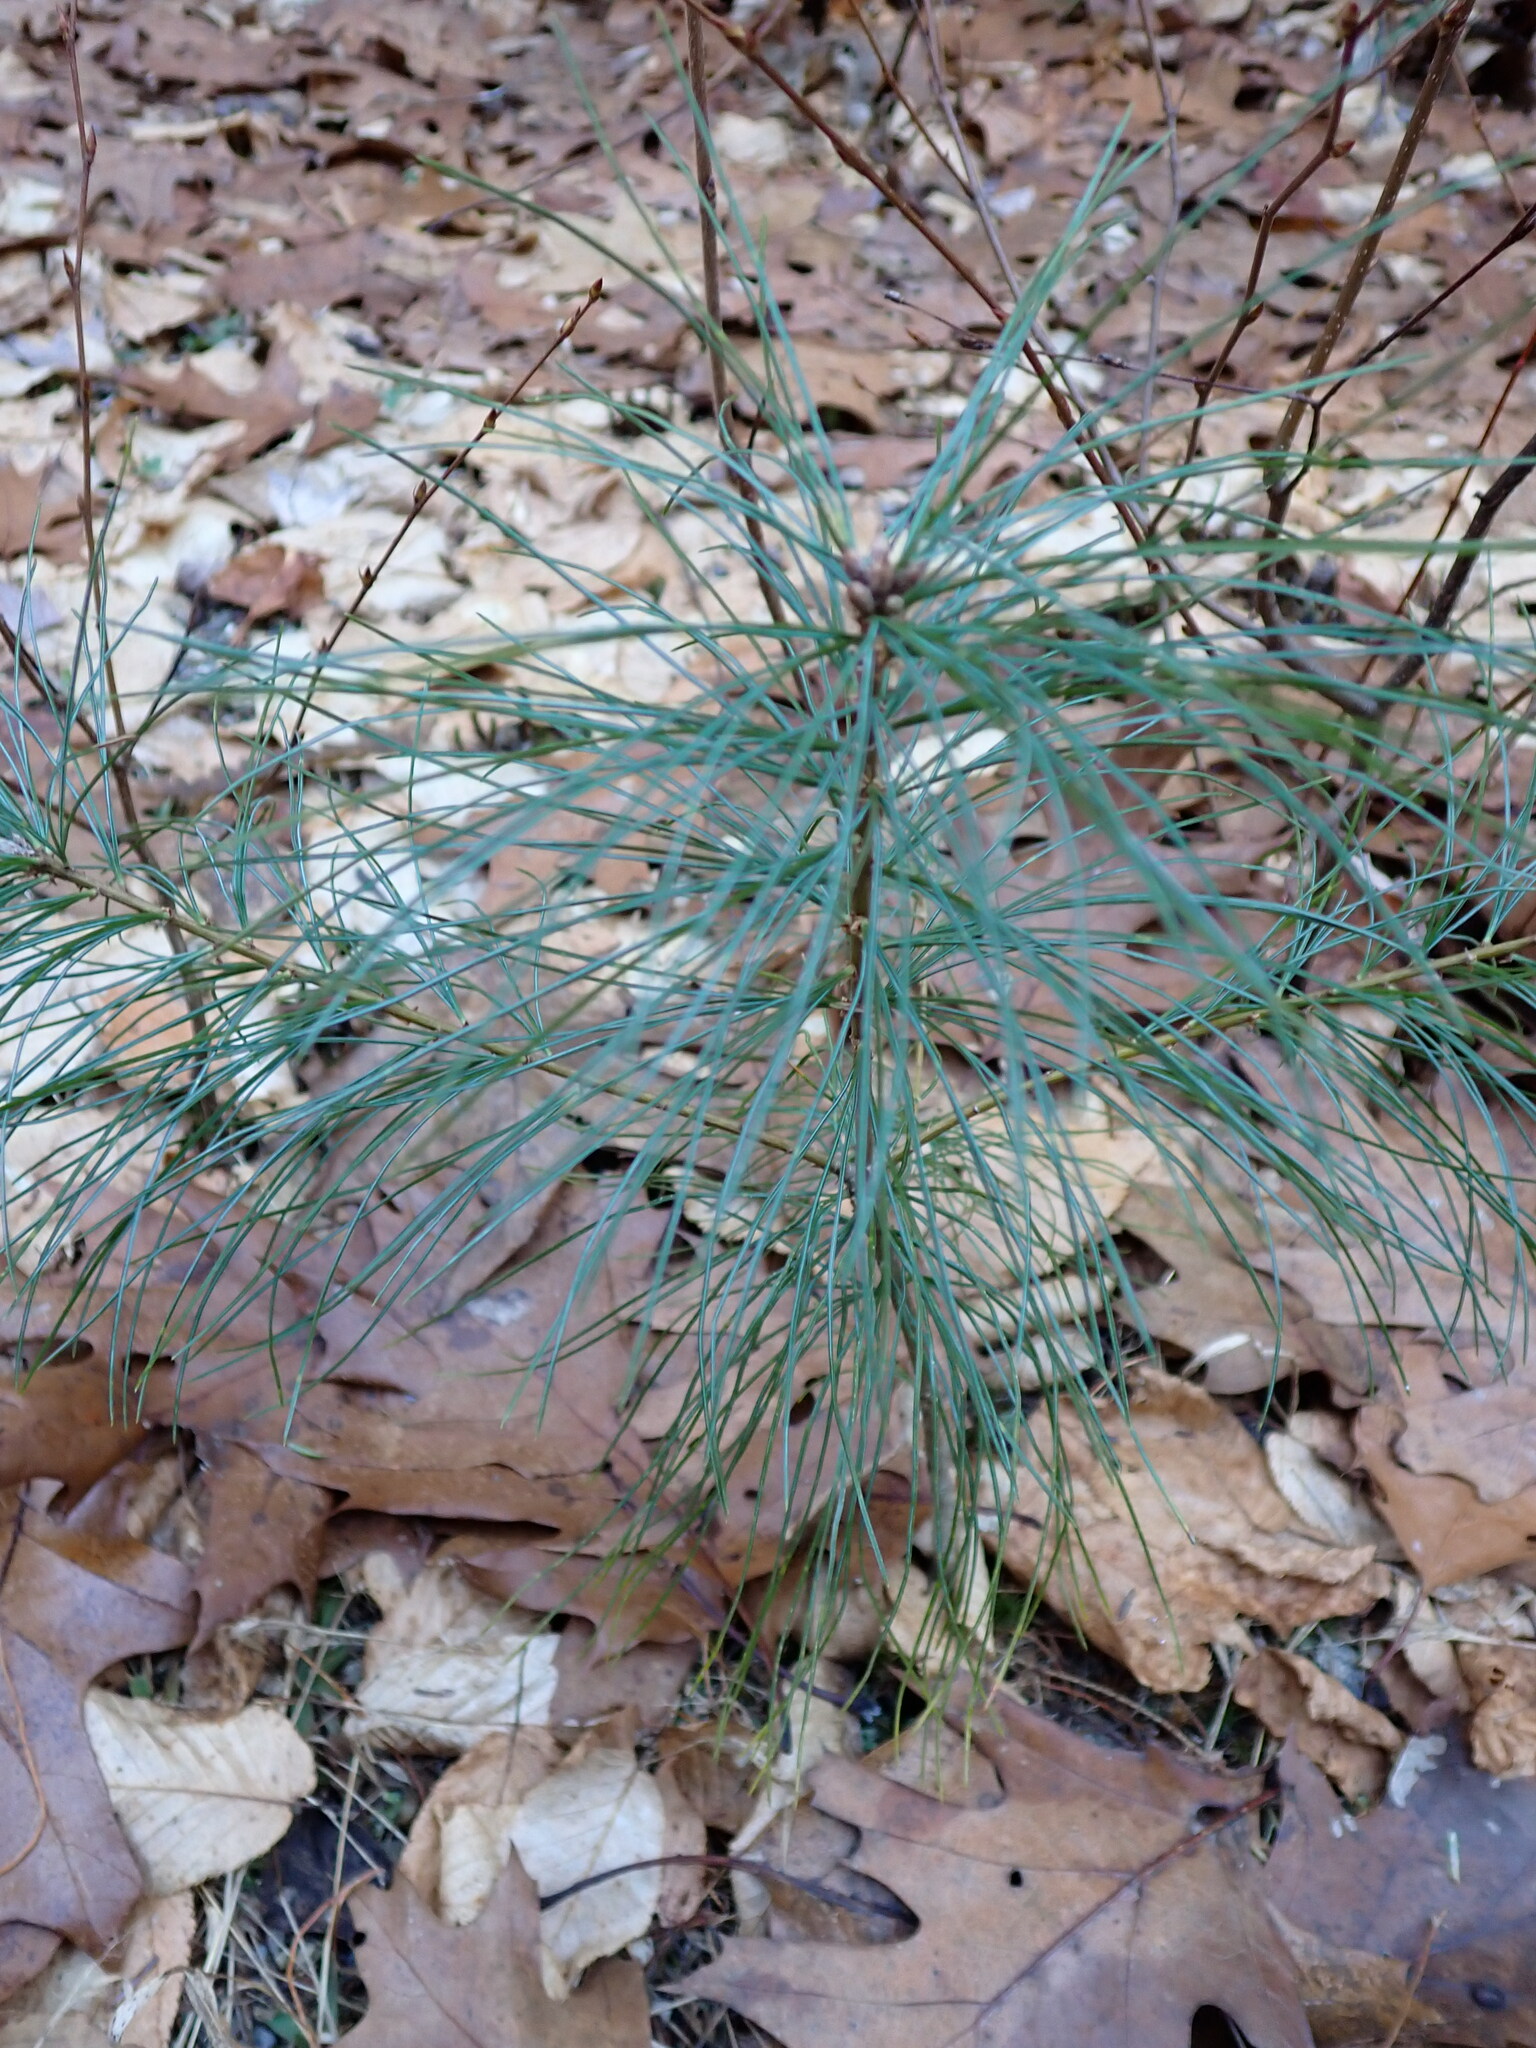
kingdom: Plantae
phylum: Tracheophyta
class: Pinopsida
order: Pinales
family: Pinaceae
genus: Pinus
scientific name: Pinus strobus
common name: Weymouth pine
